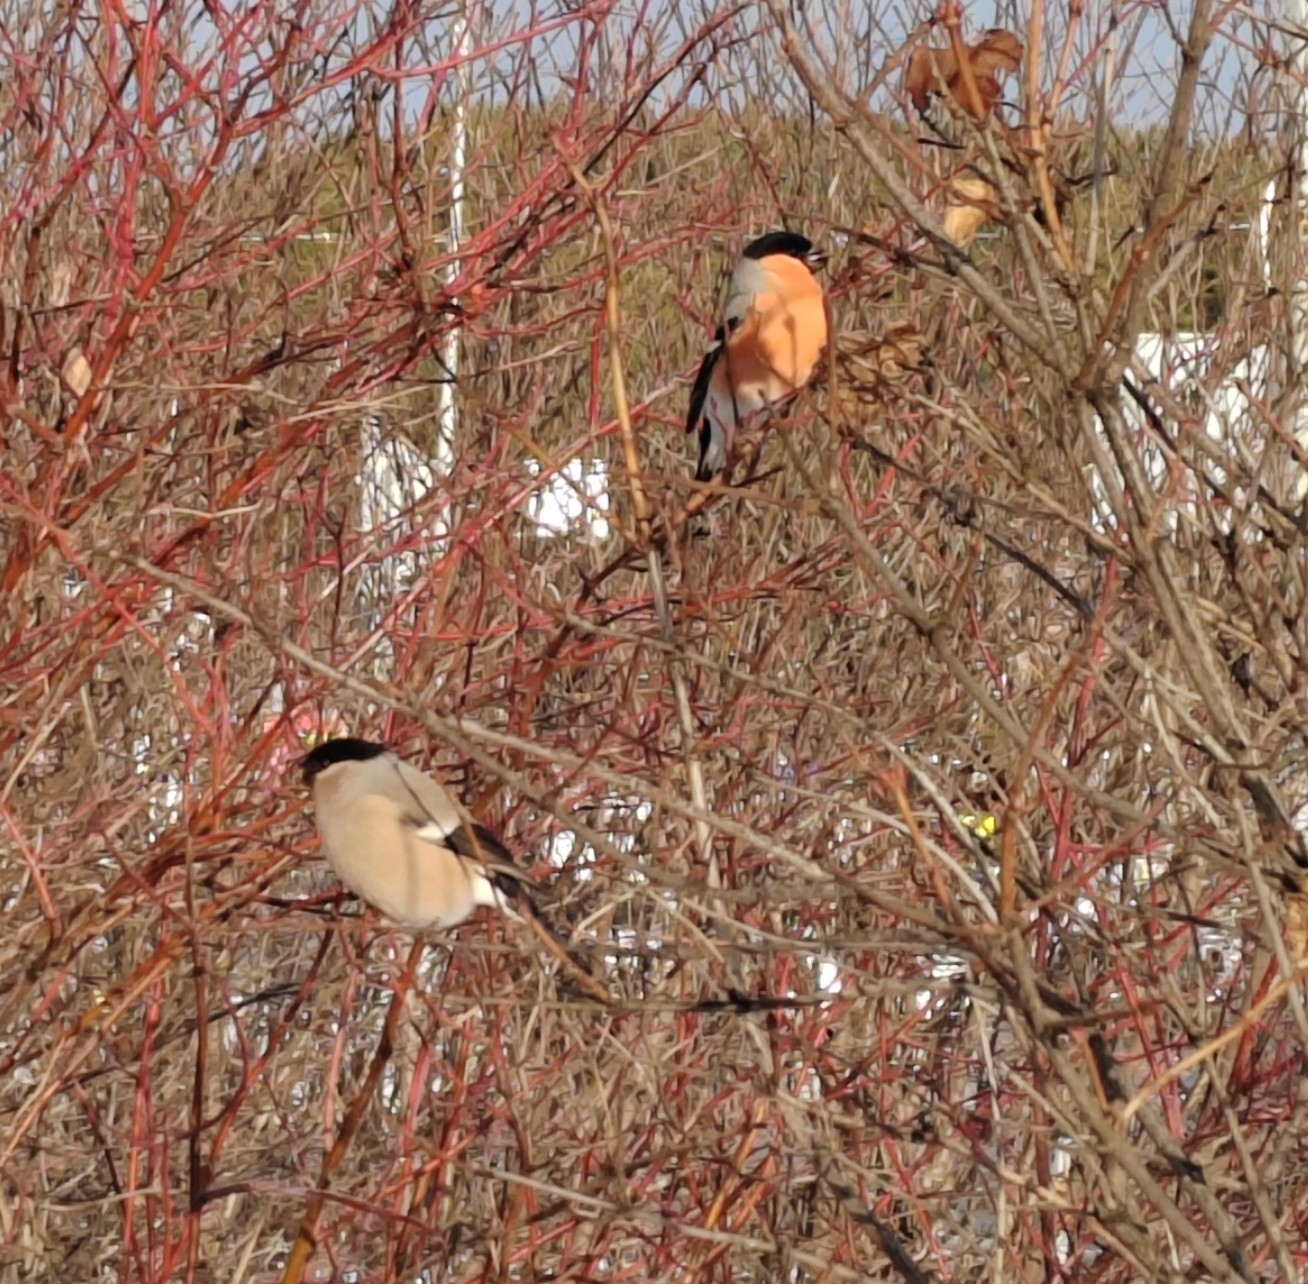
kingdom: Animalia
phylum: Chordata
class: Aves
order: Passeriformes
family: Fringillidae
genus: Pyrrhula
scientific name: Pyrrhula pyrrhula
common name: Eurasian bullfinch
